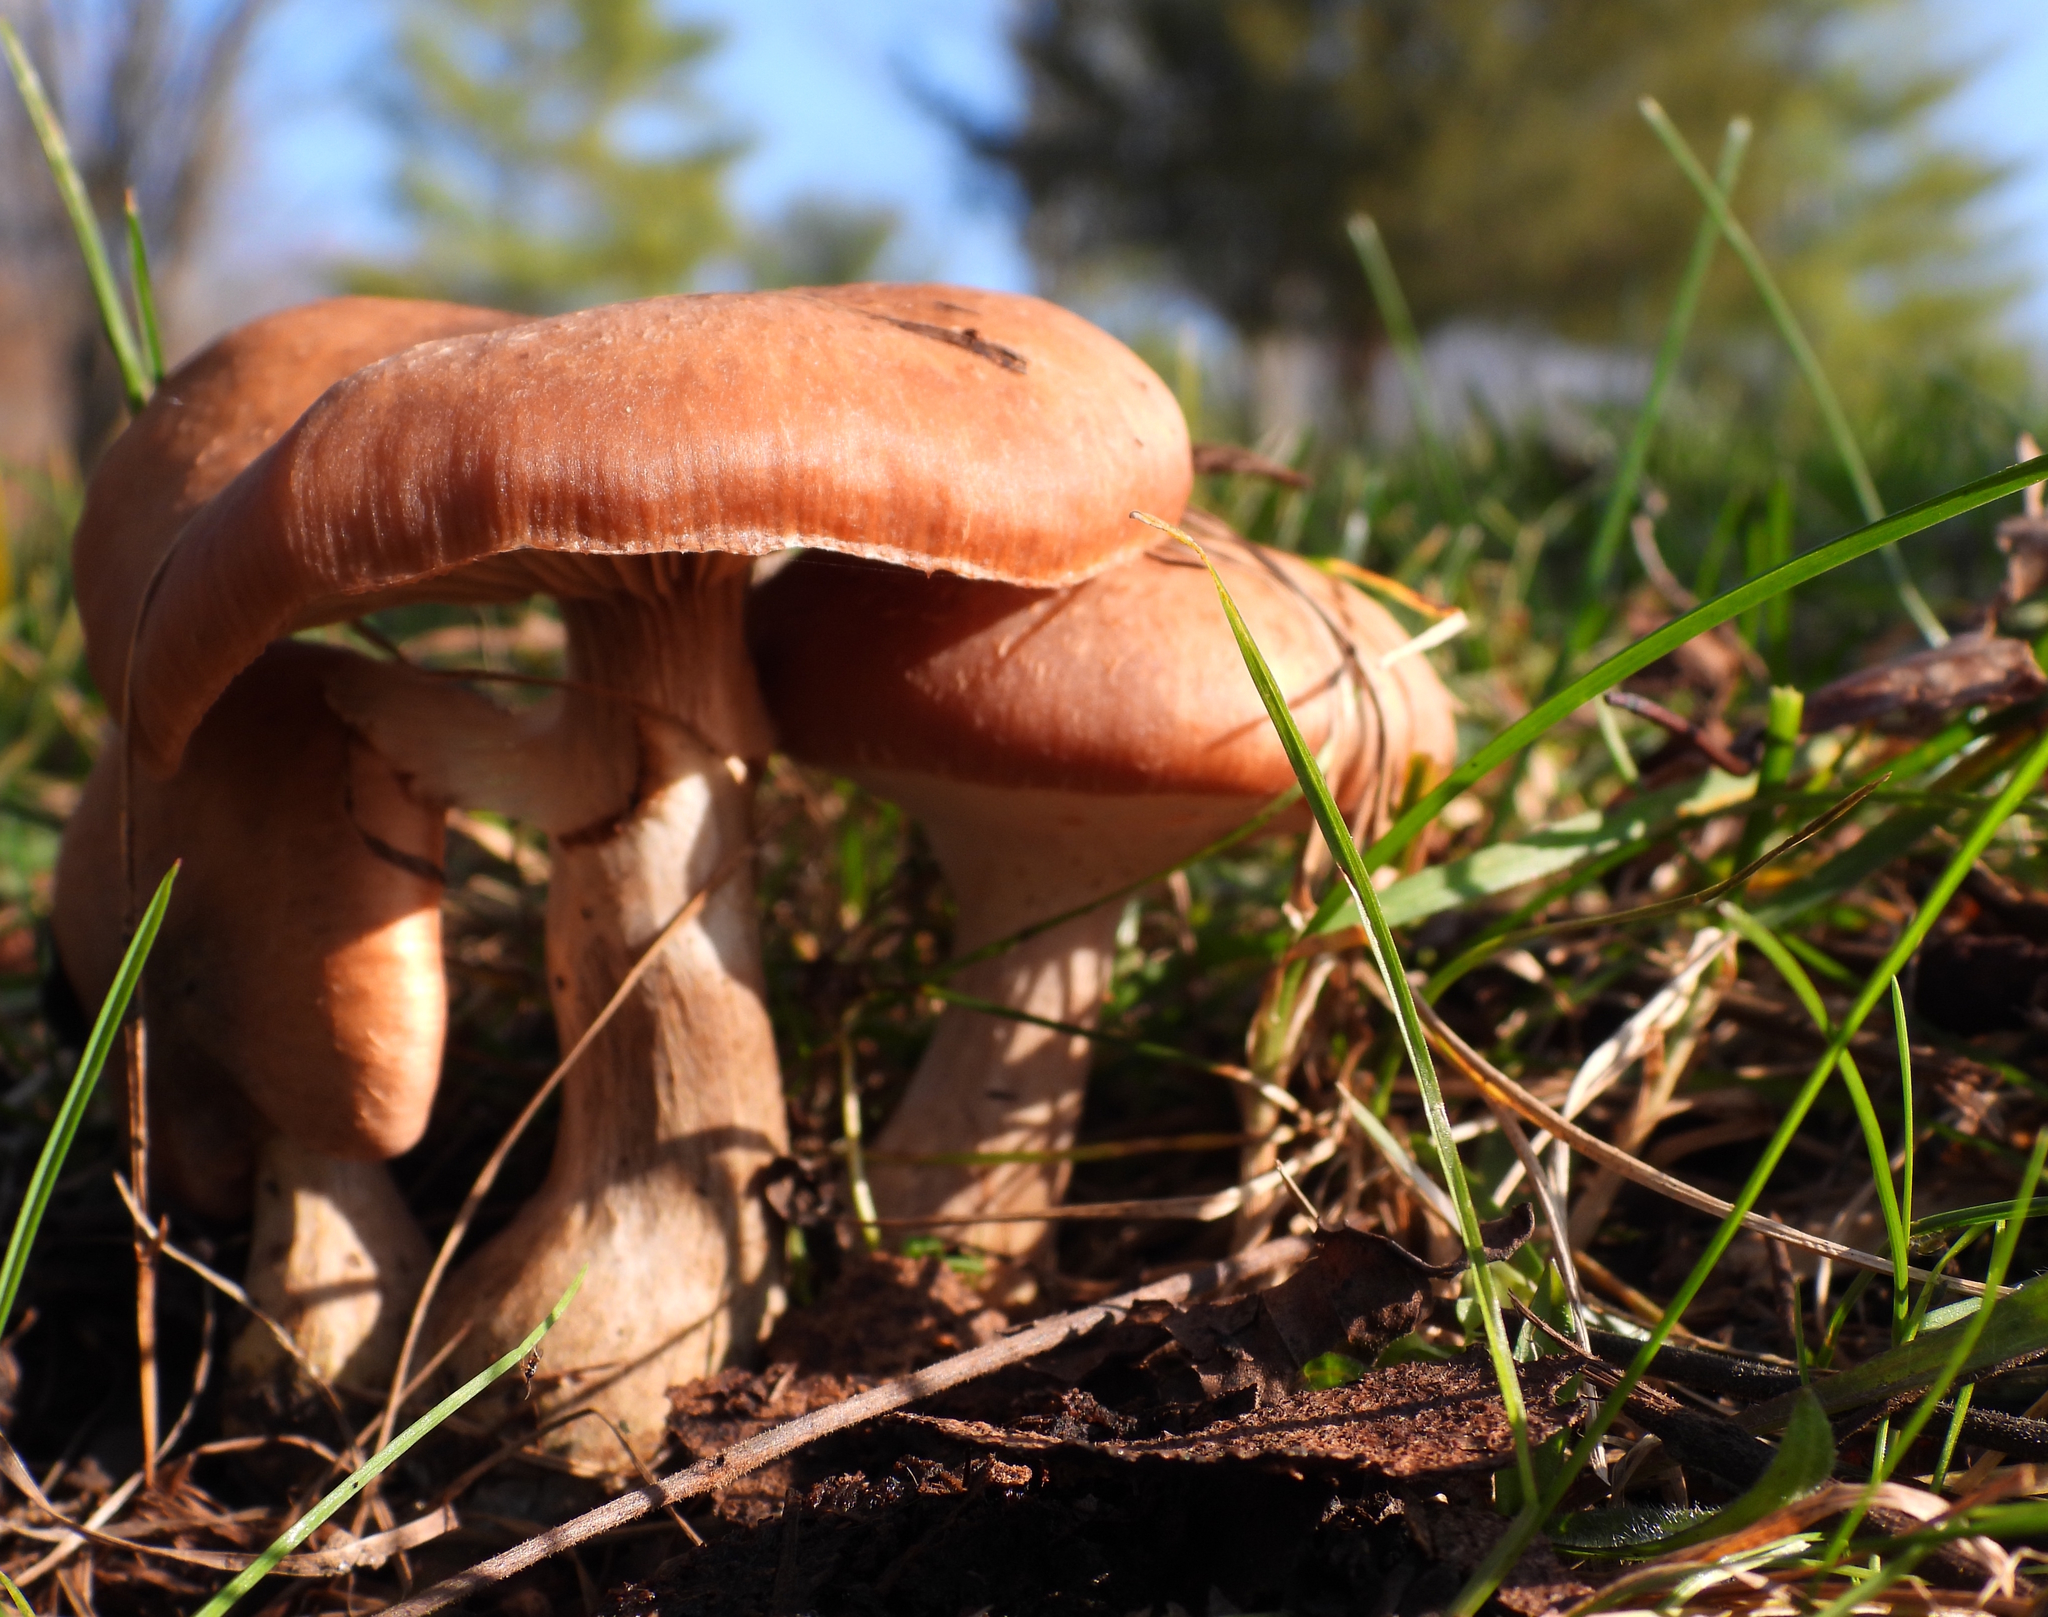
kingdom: Fungi
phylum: Basidiomycota
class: Agaricomycetes
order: Agaricales
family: Physalacriaceae
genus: Armillaria
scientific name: Armillaria gallica
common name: Bulbous honey fungus
